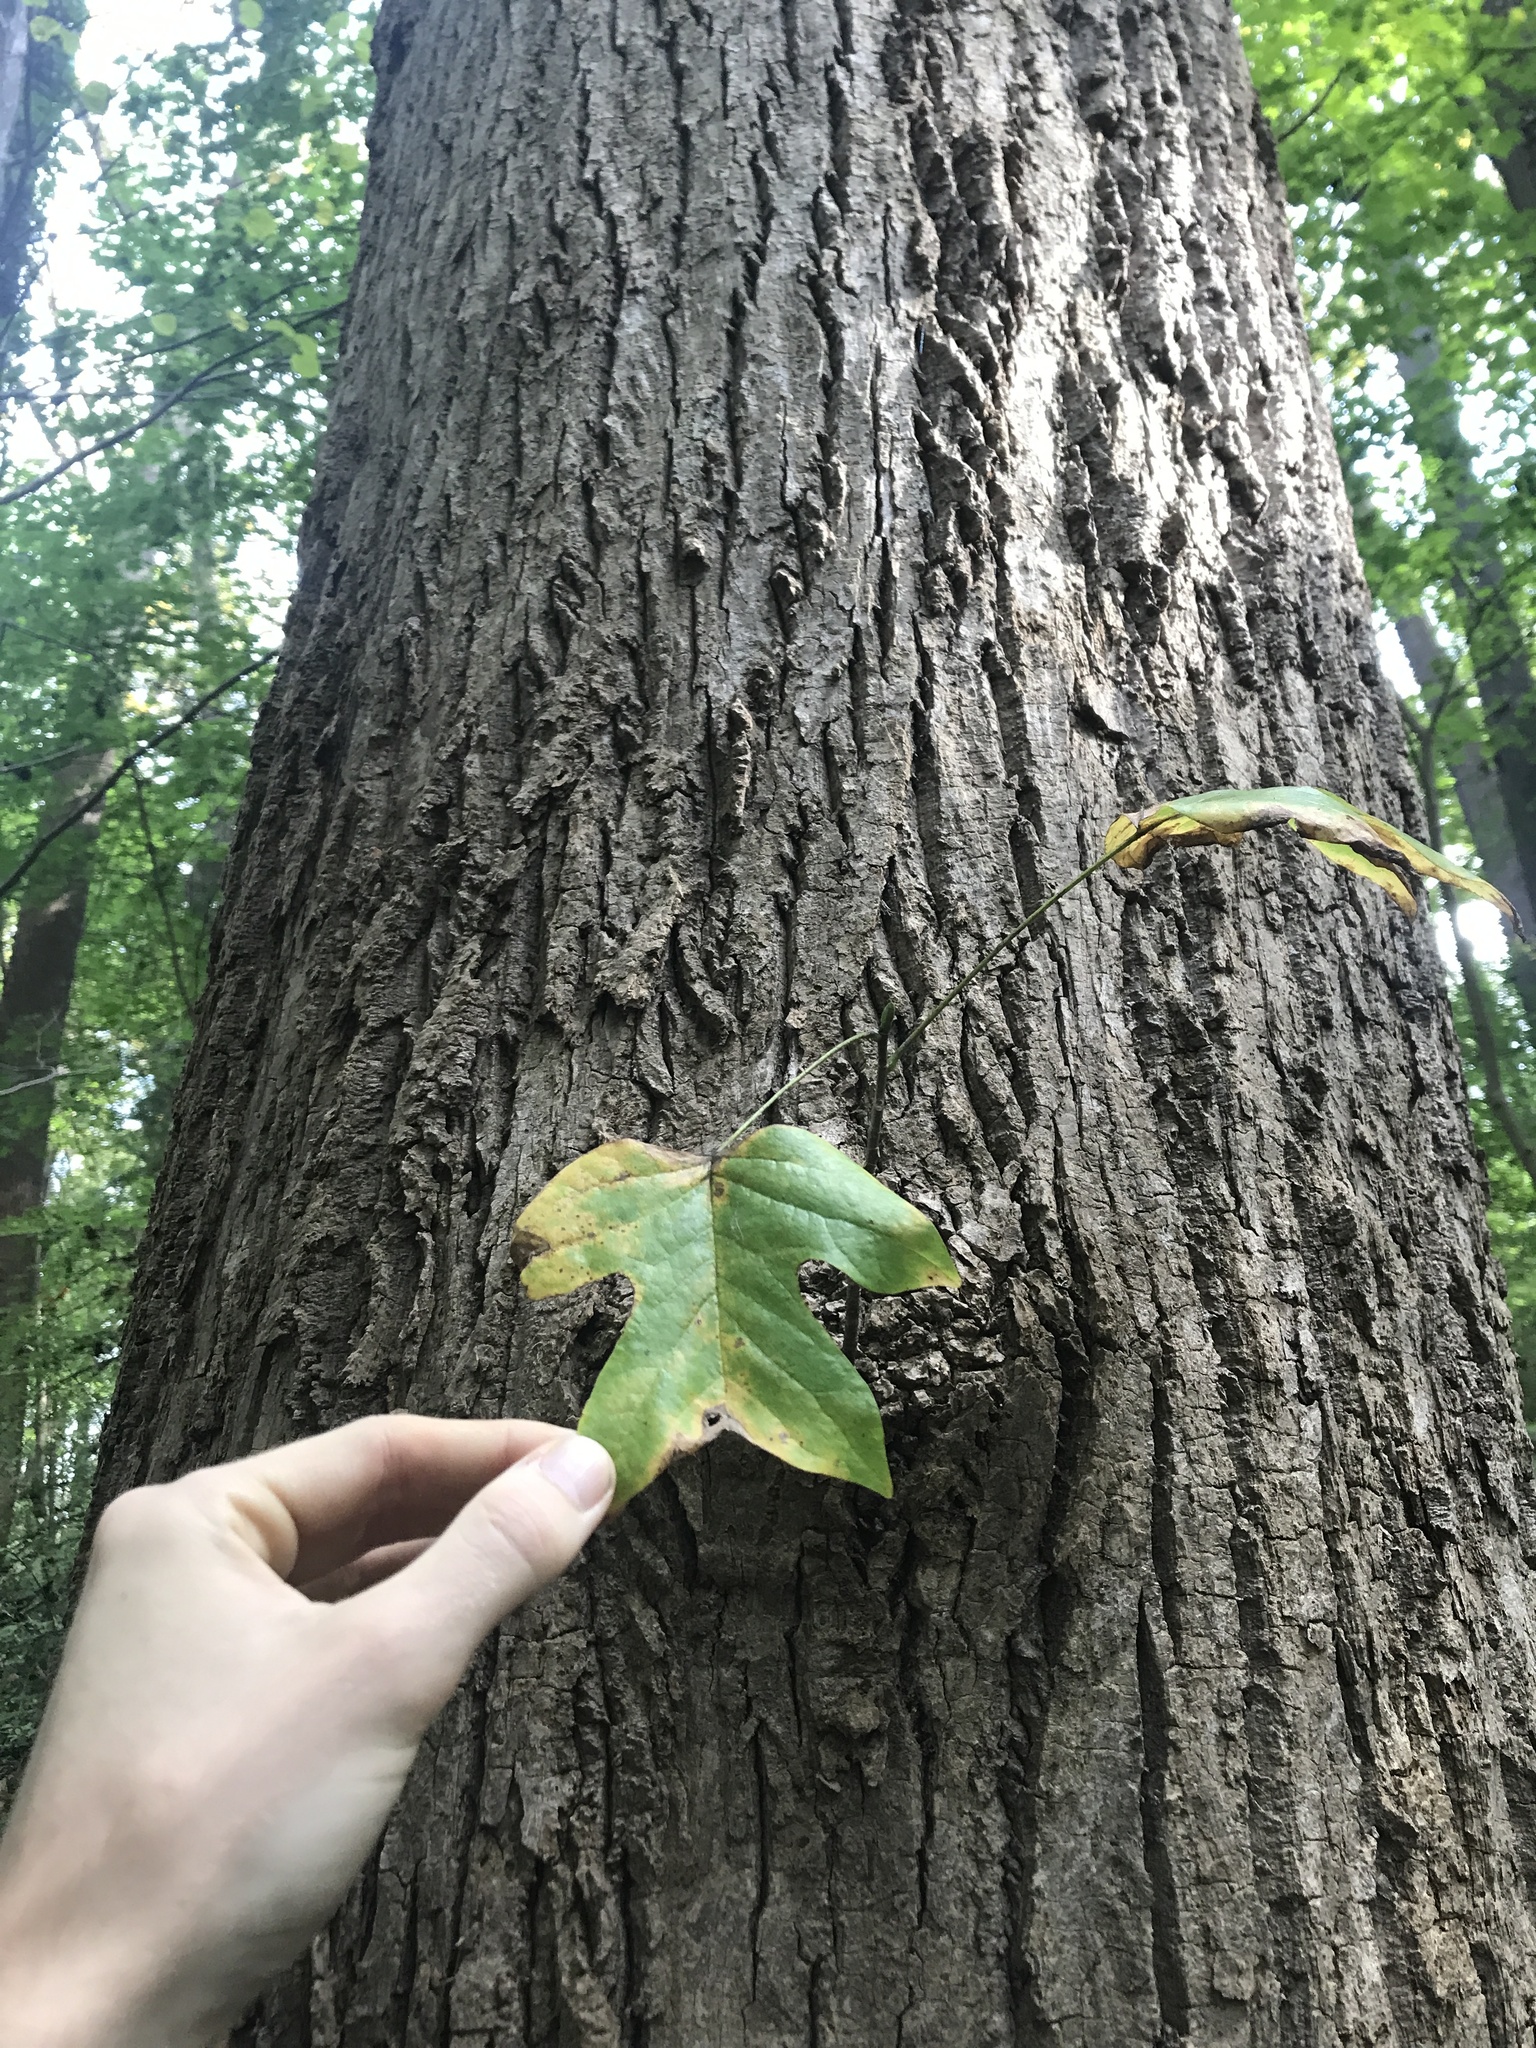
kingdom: Plantae
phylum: Tracheophyta
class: Magnoliopsida
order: Magnoliales
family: Magnoliaceae
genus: Liriodendron
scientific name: Liriodendron tulipifera
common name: Tulip tree
